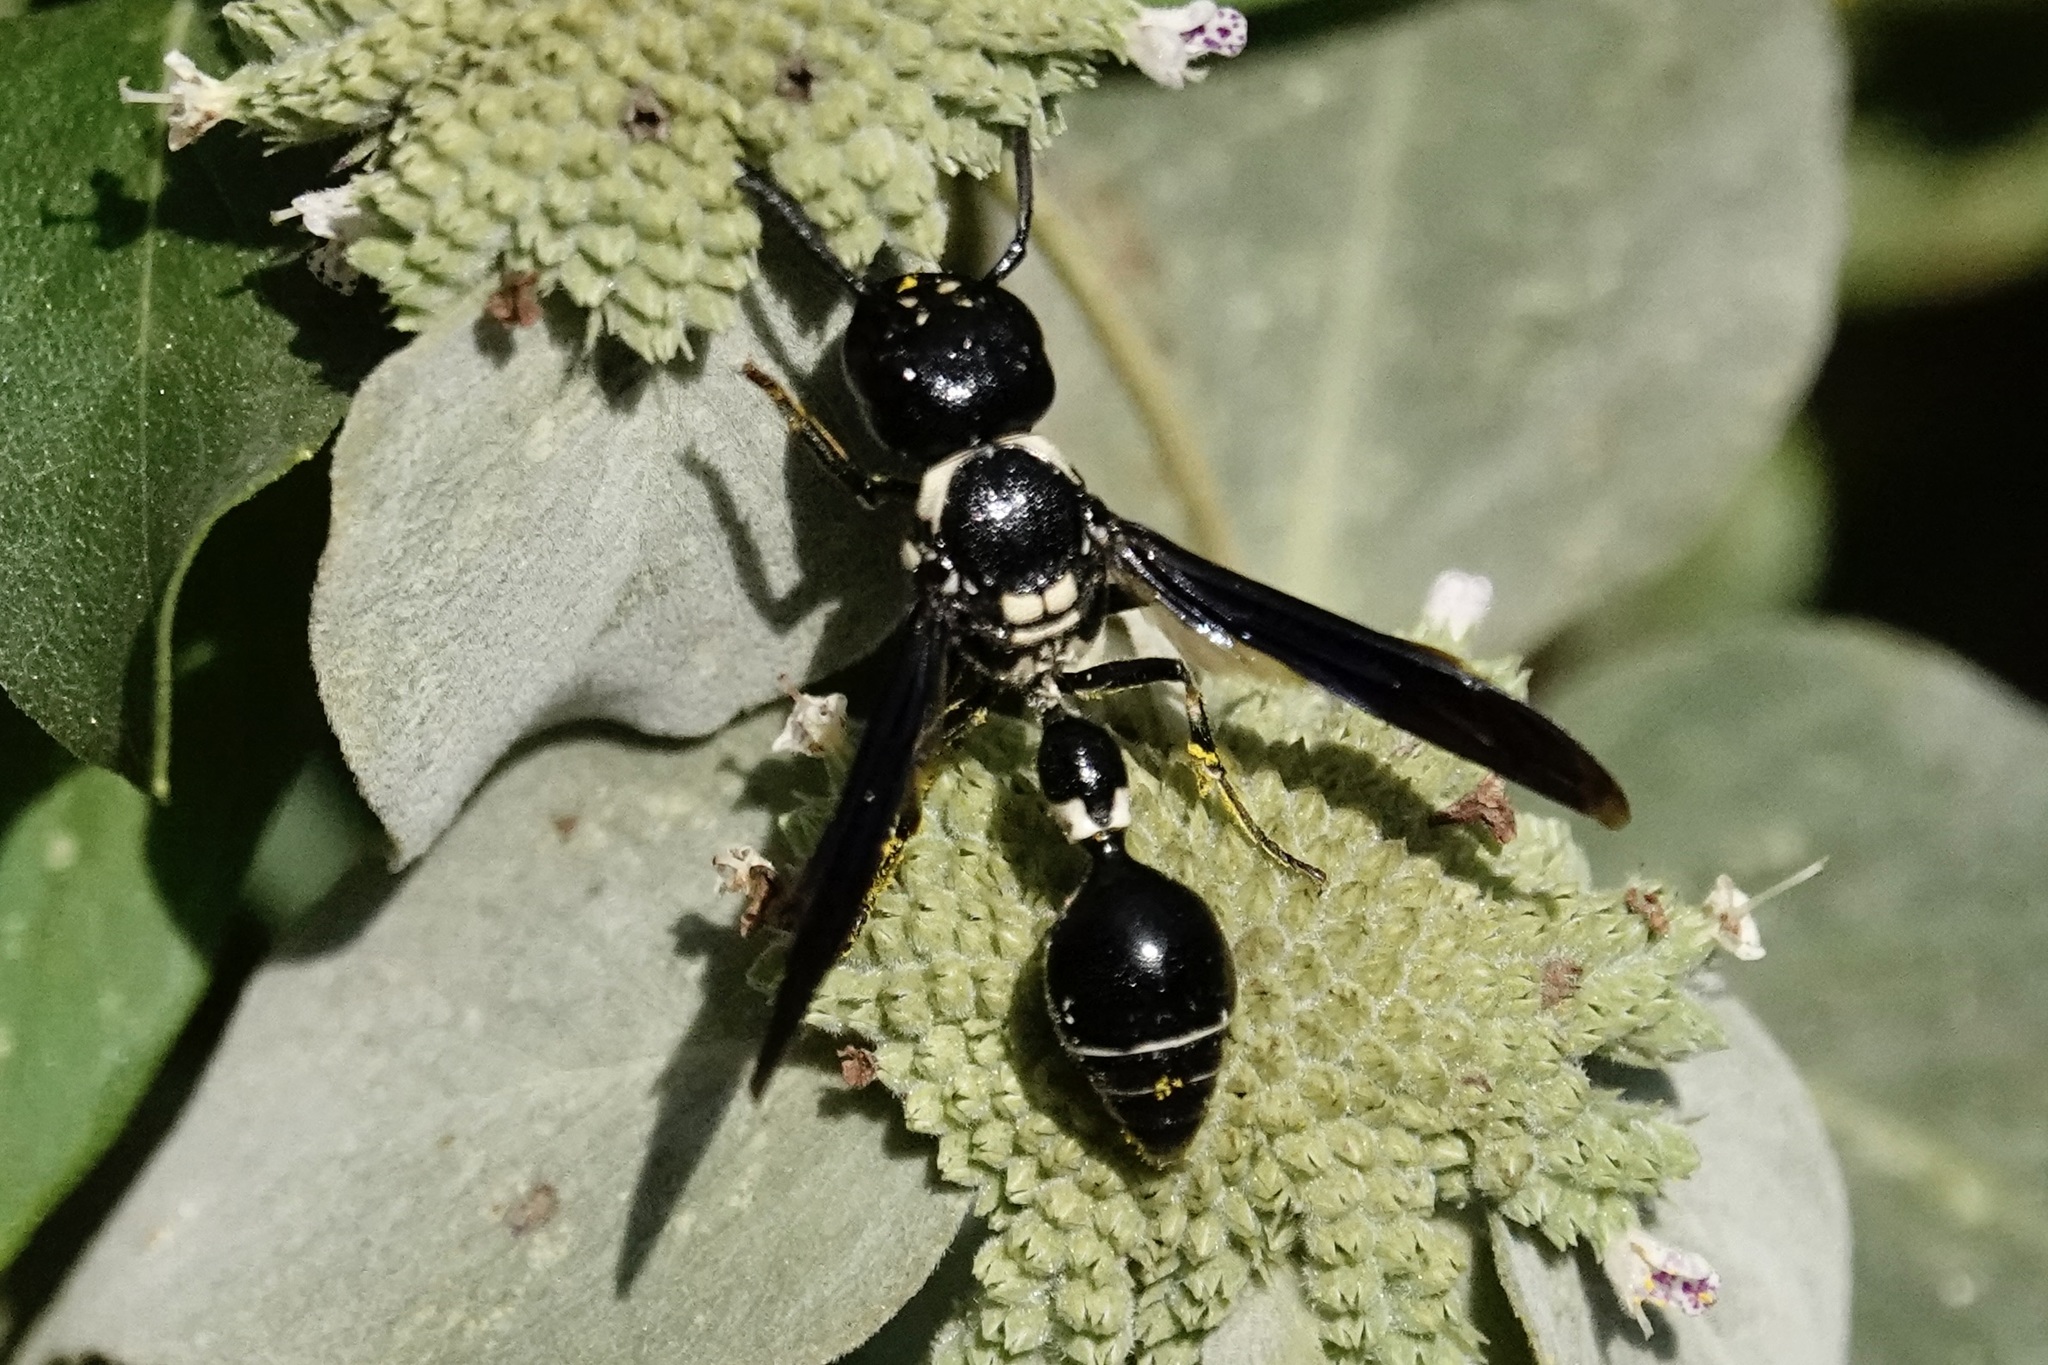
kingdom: Animalia
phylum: Arthropoda
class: Insecta
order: Hymenoptera
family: Eumenidae
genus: Zethus
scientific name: Zethus spinipes
